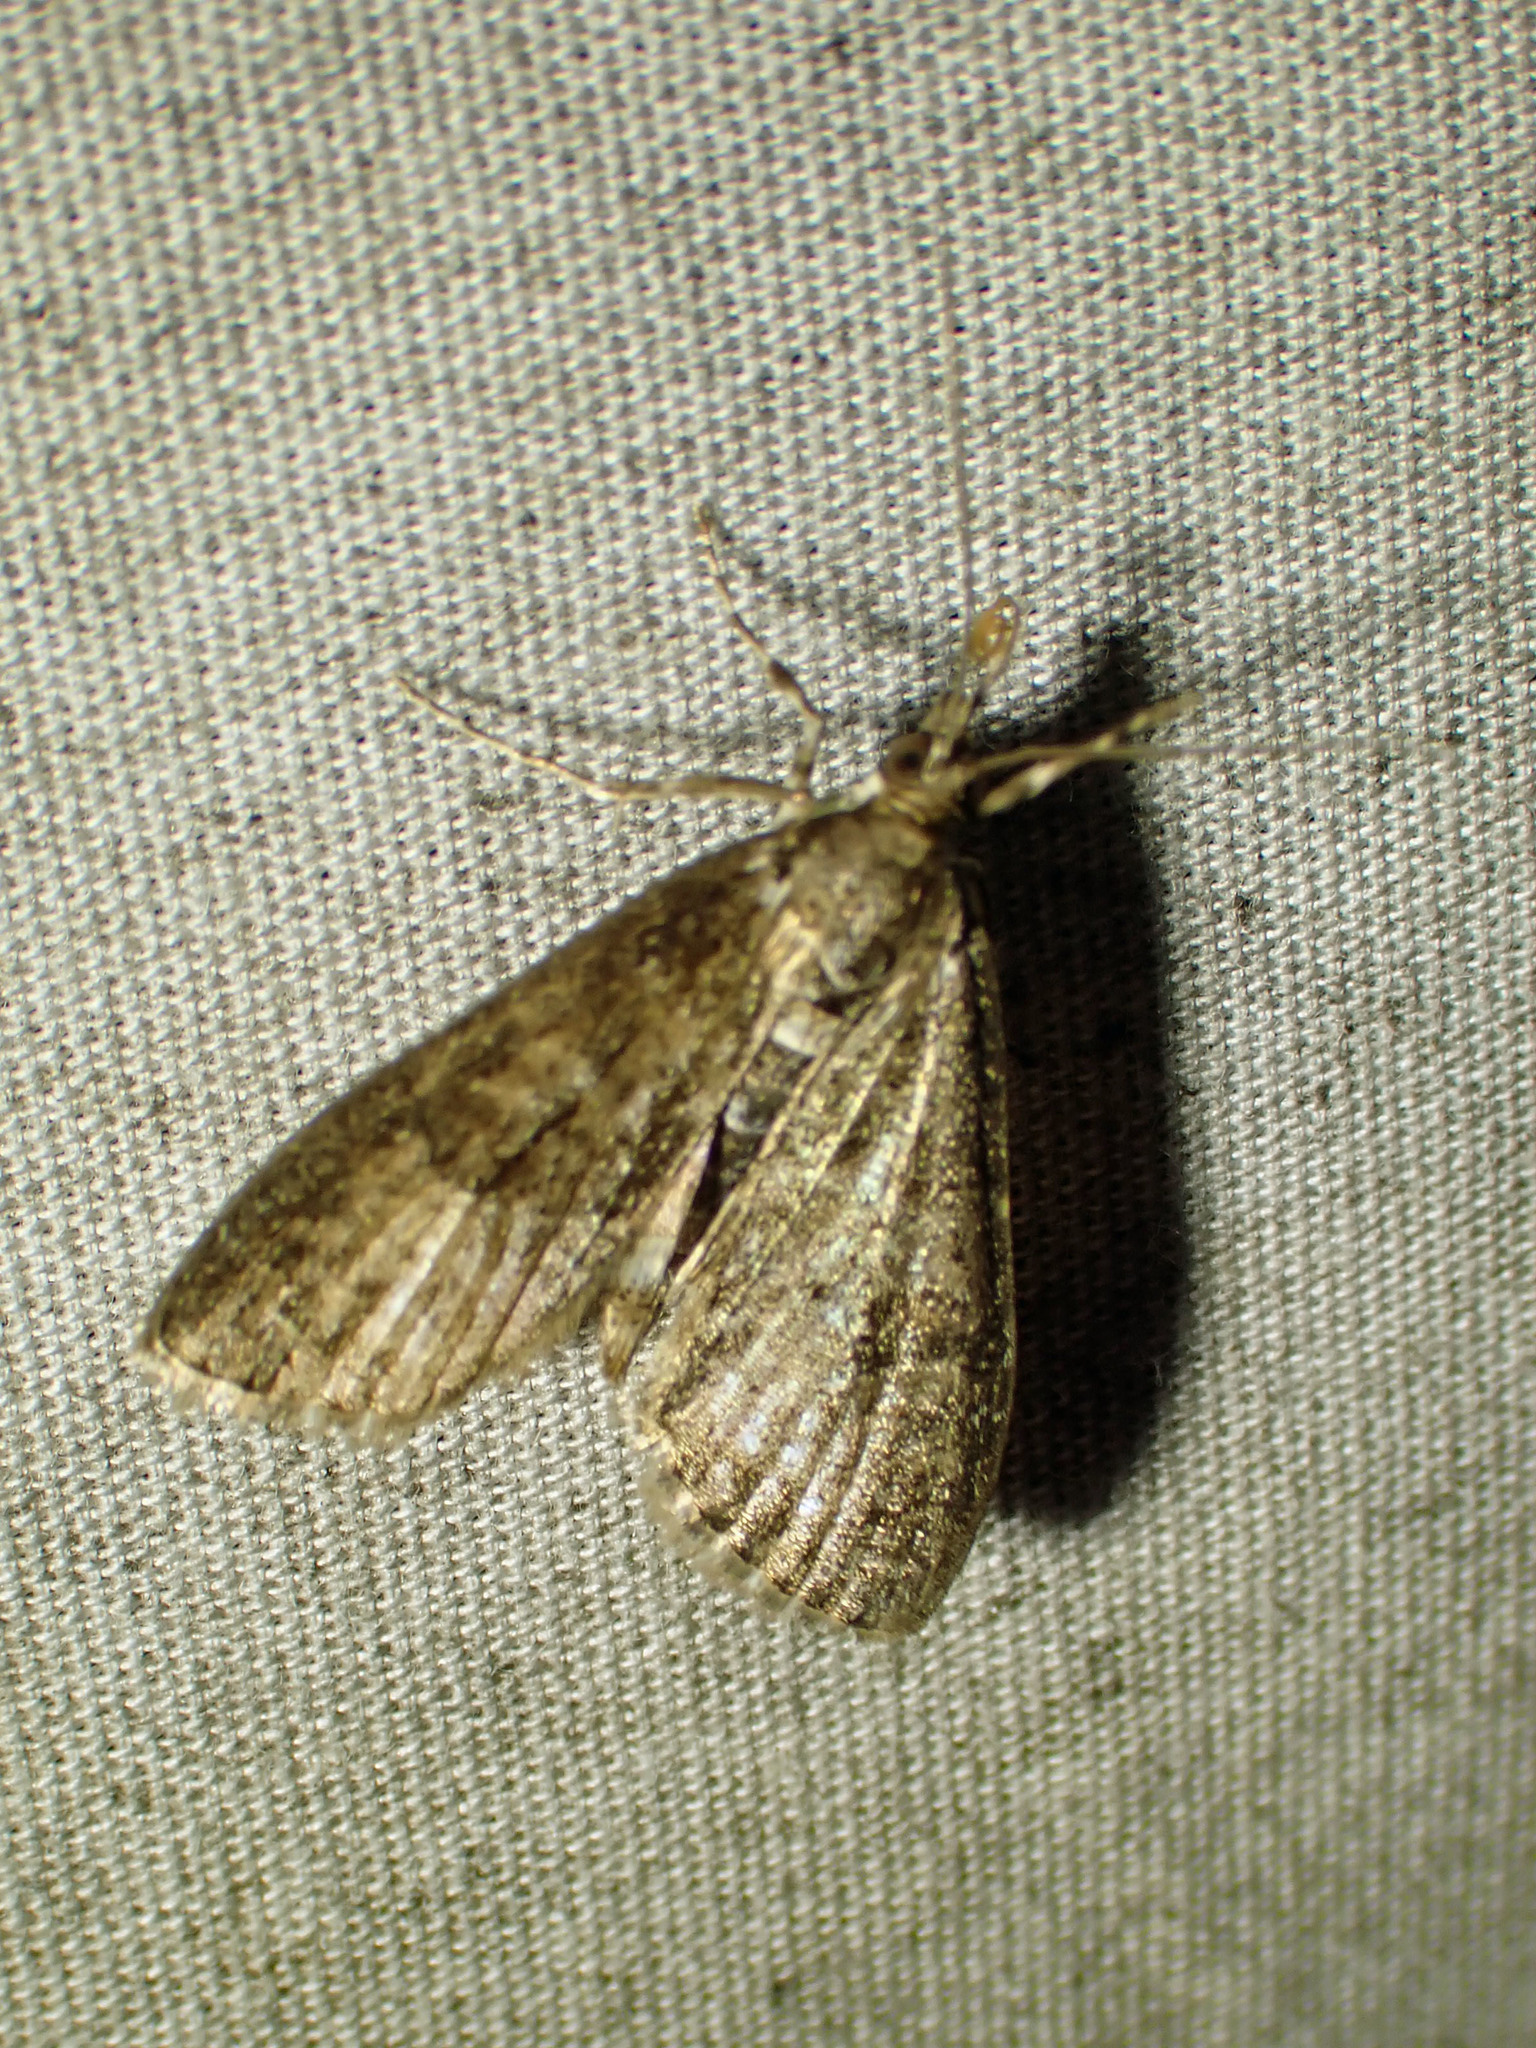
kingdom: Animalia
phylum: Arthropoda
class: Insecta
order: Lepidoptera
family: Crambidae
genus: Palpita
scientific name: Palpita magniferalis
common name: Splendid palpita moth
